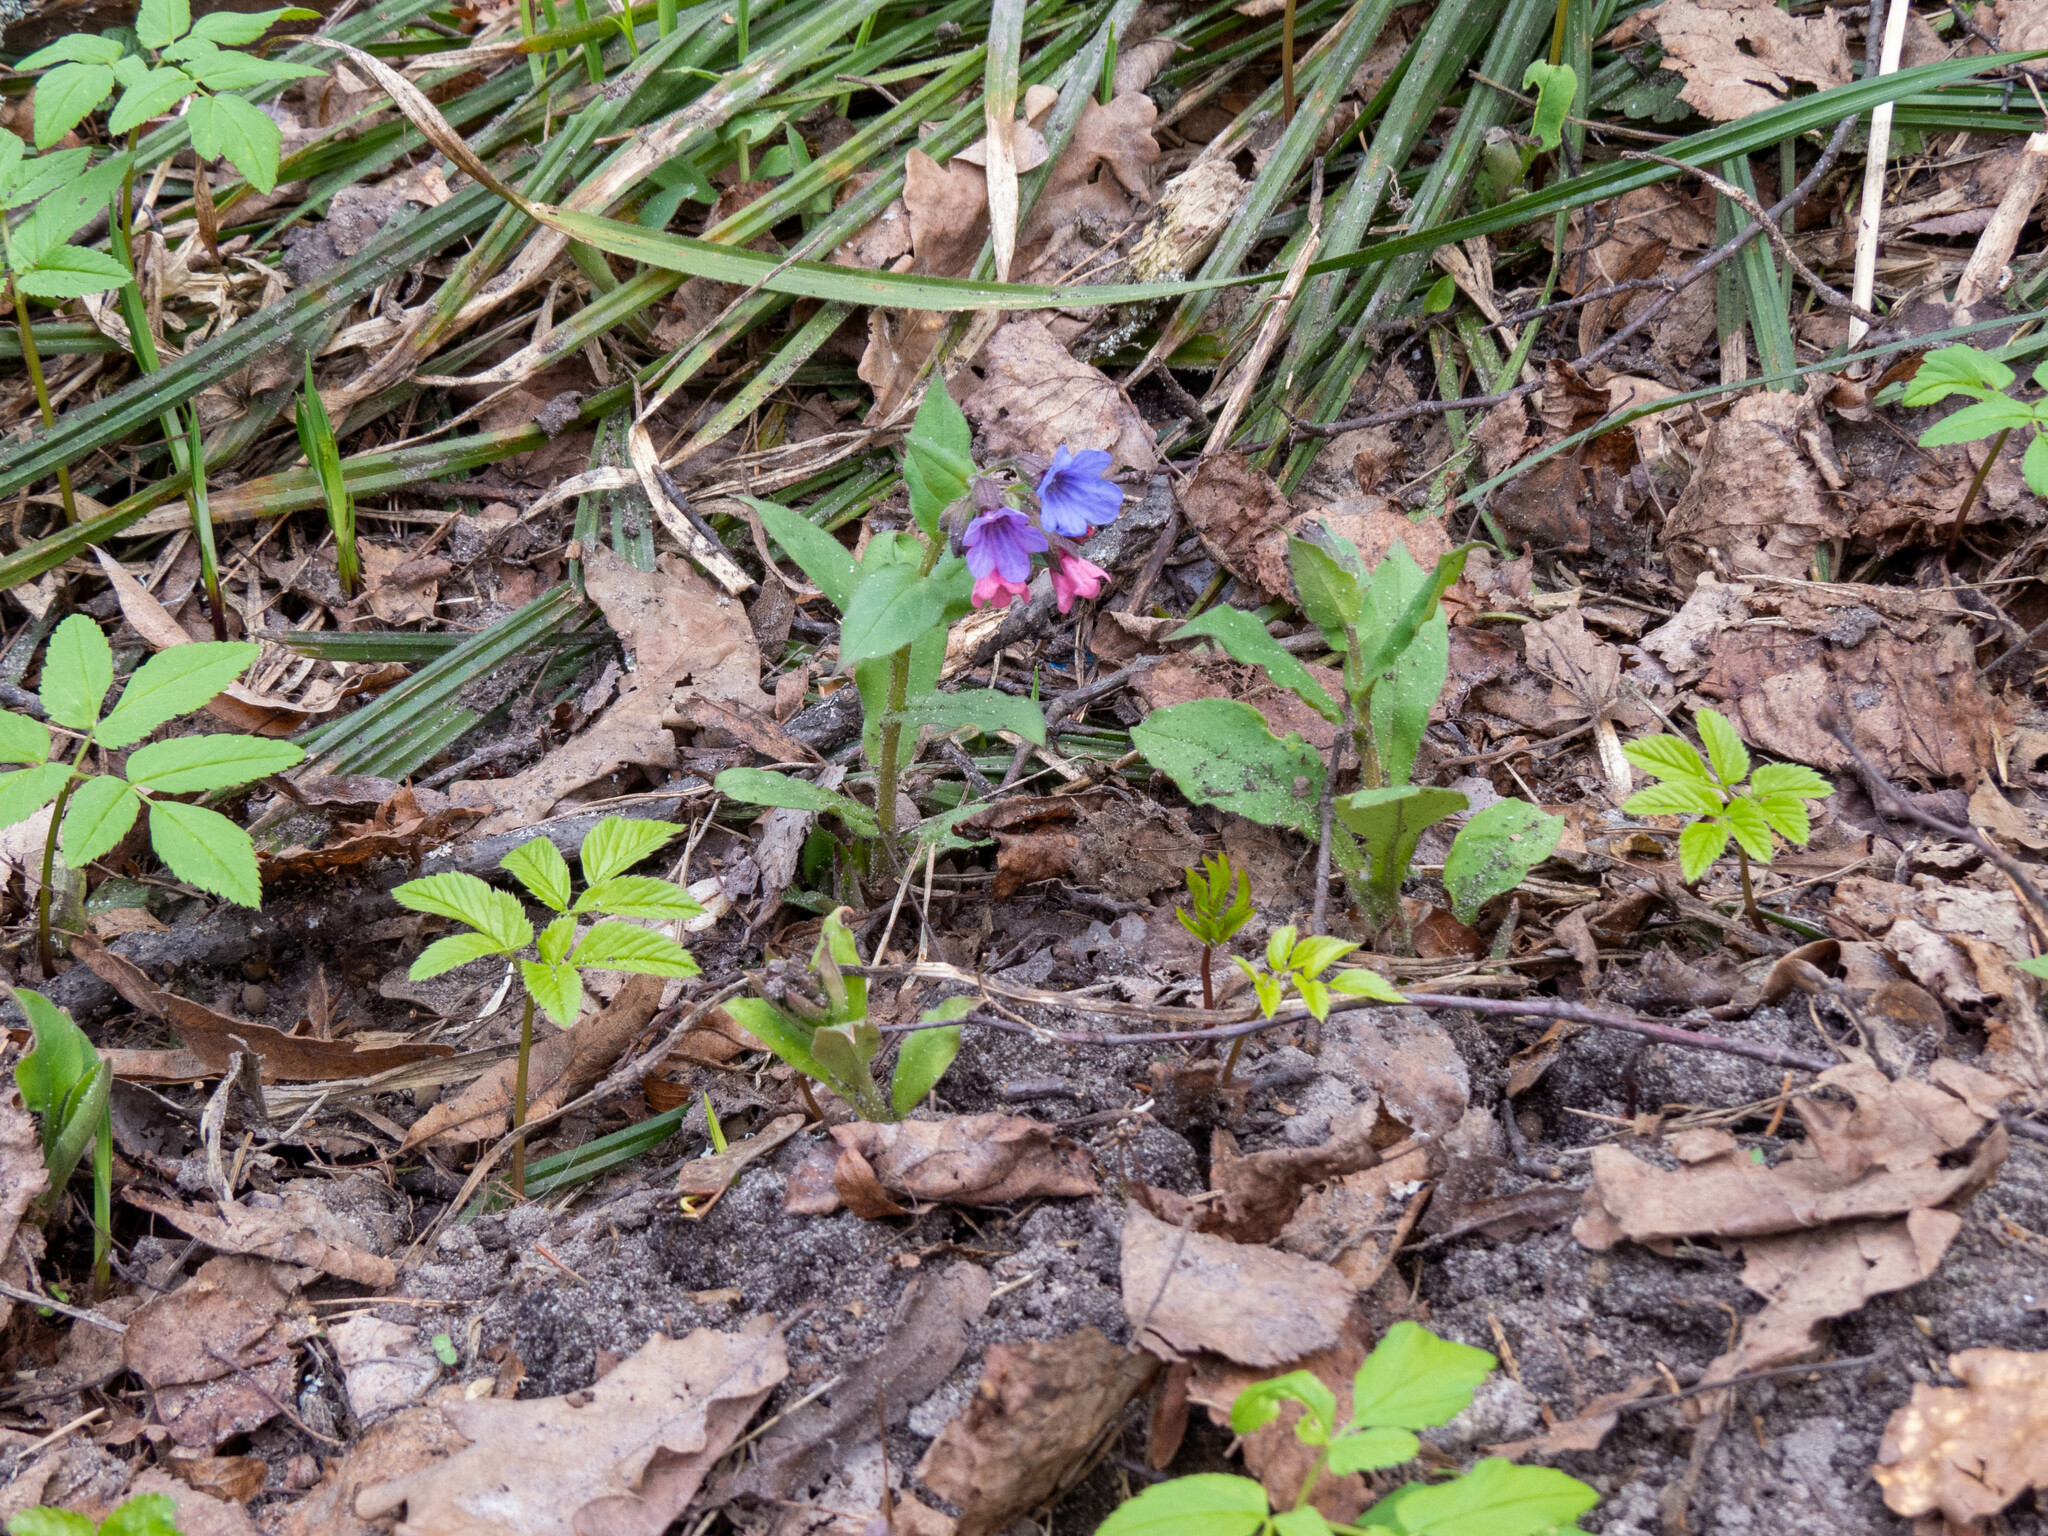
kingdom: Plantae
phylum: Tracheophyta
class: Magnoliopsida
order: Boraginales
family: Boraginaceae
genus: Pulmonaria
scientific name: Pulmonaria obscura
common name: Suffolk lungwort
